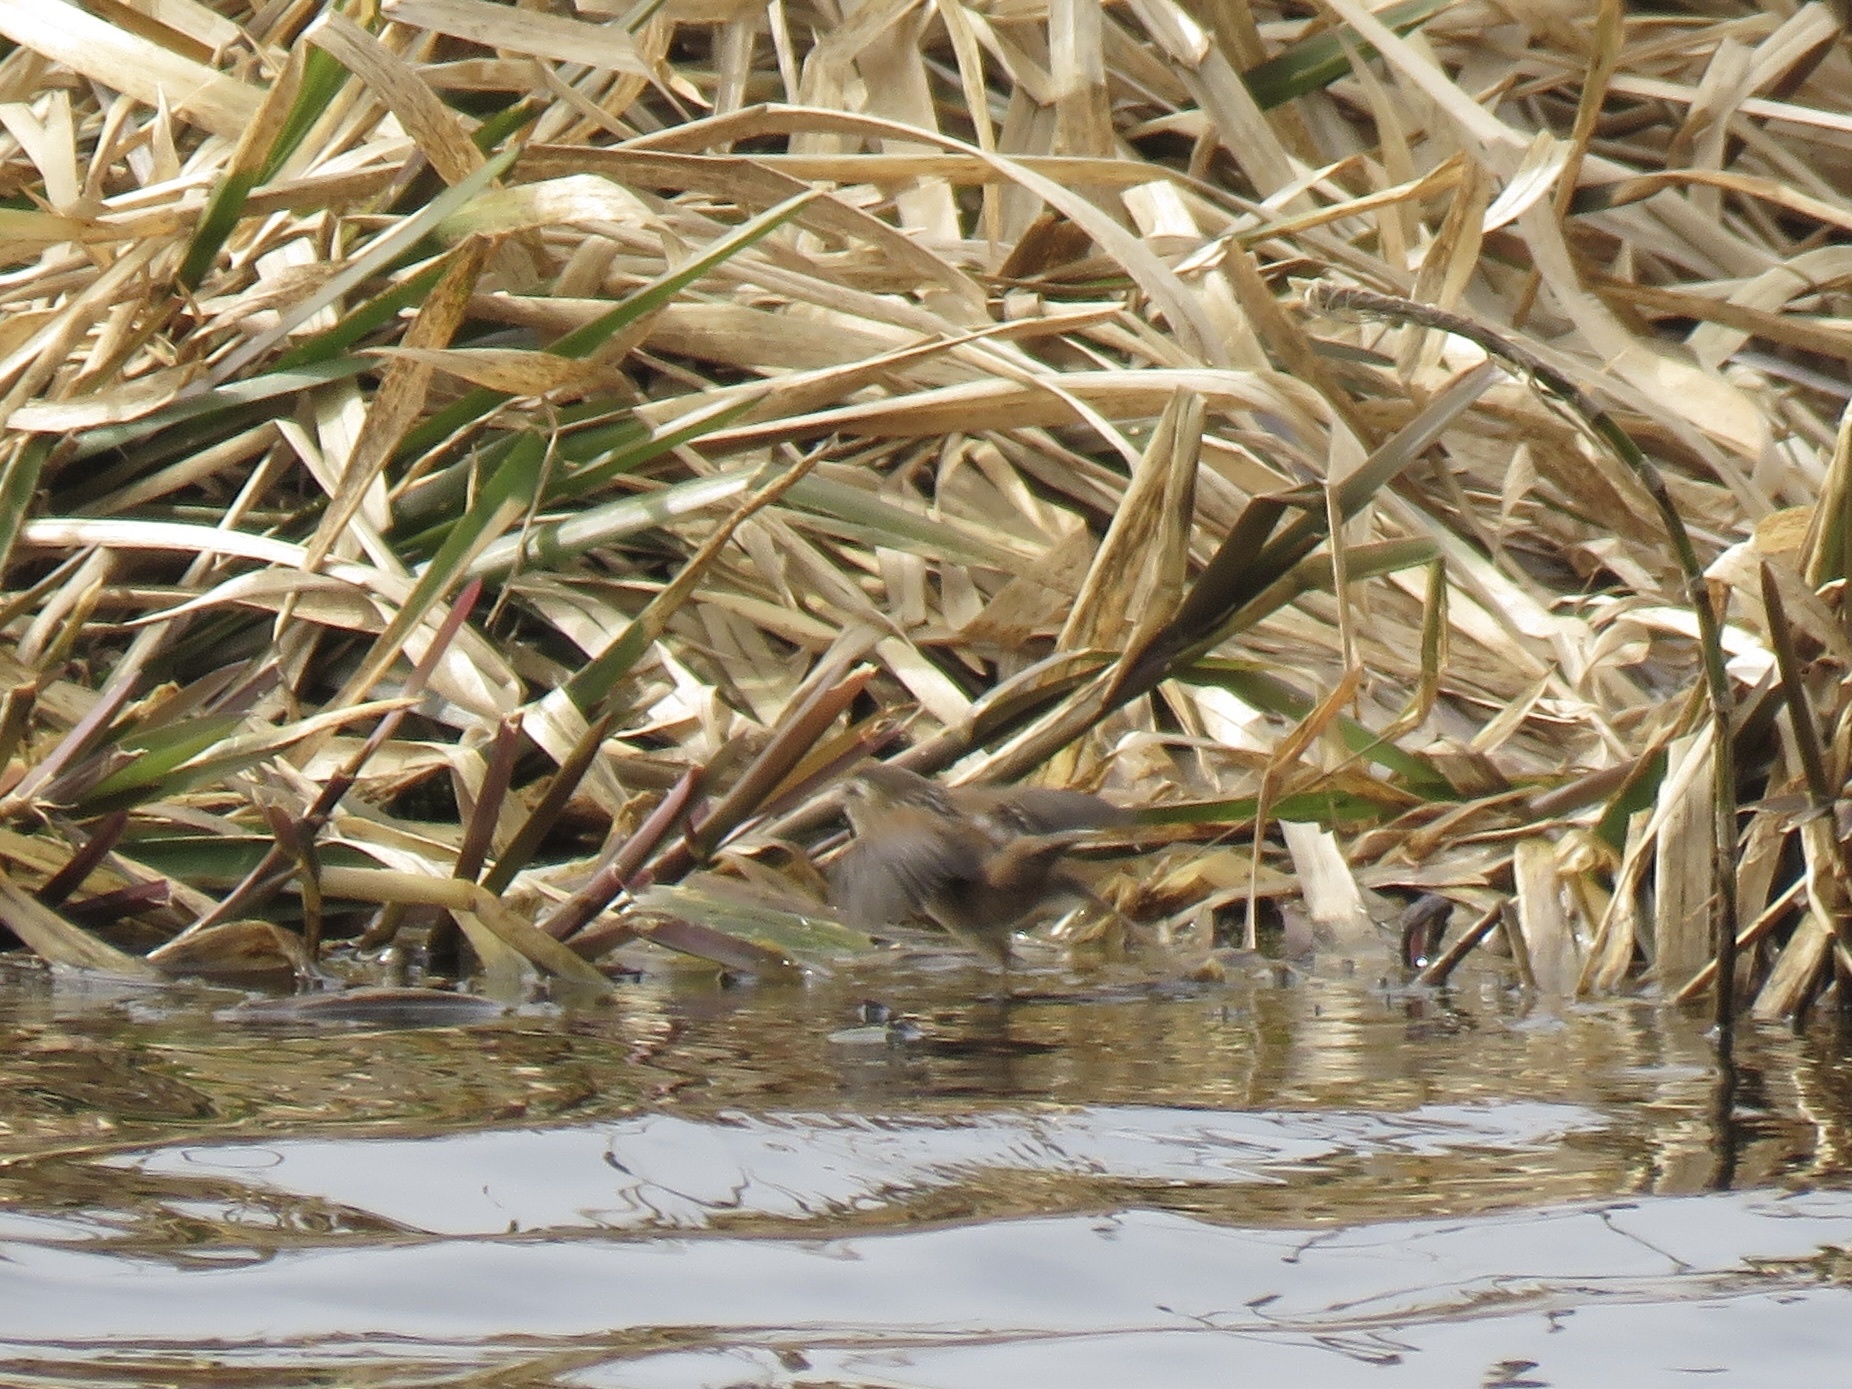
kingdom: Animalia
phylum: Chordata
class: Aves
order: Passeriformes
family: Troglodytidae
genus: Cistothorus
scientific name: Cistothorus palustris
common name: Marsh wren
